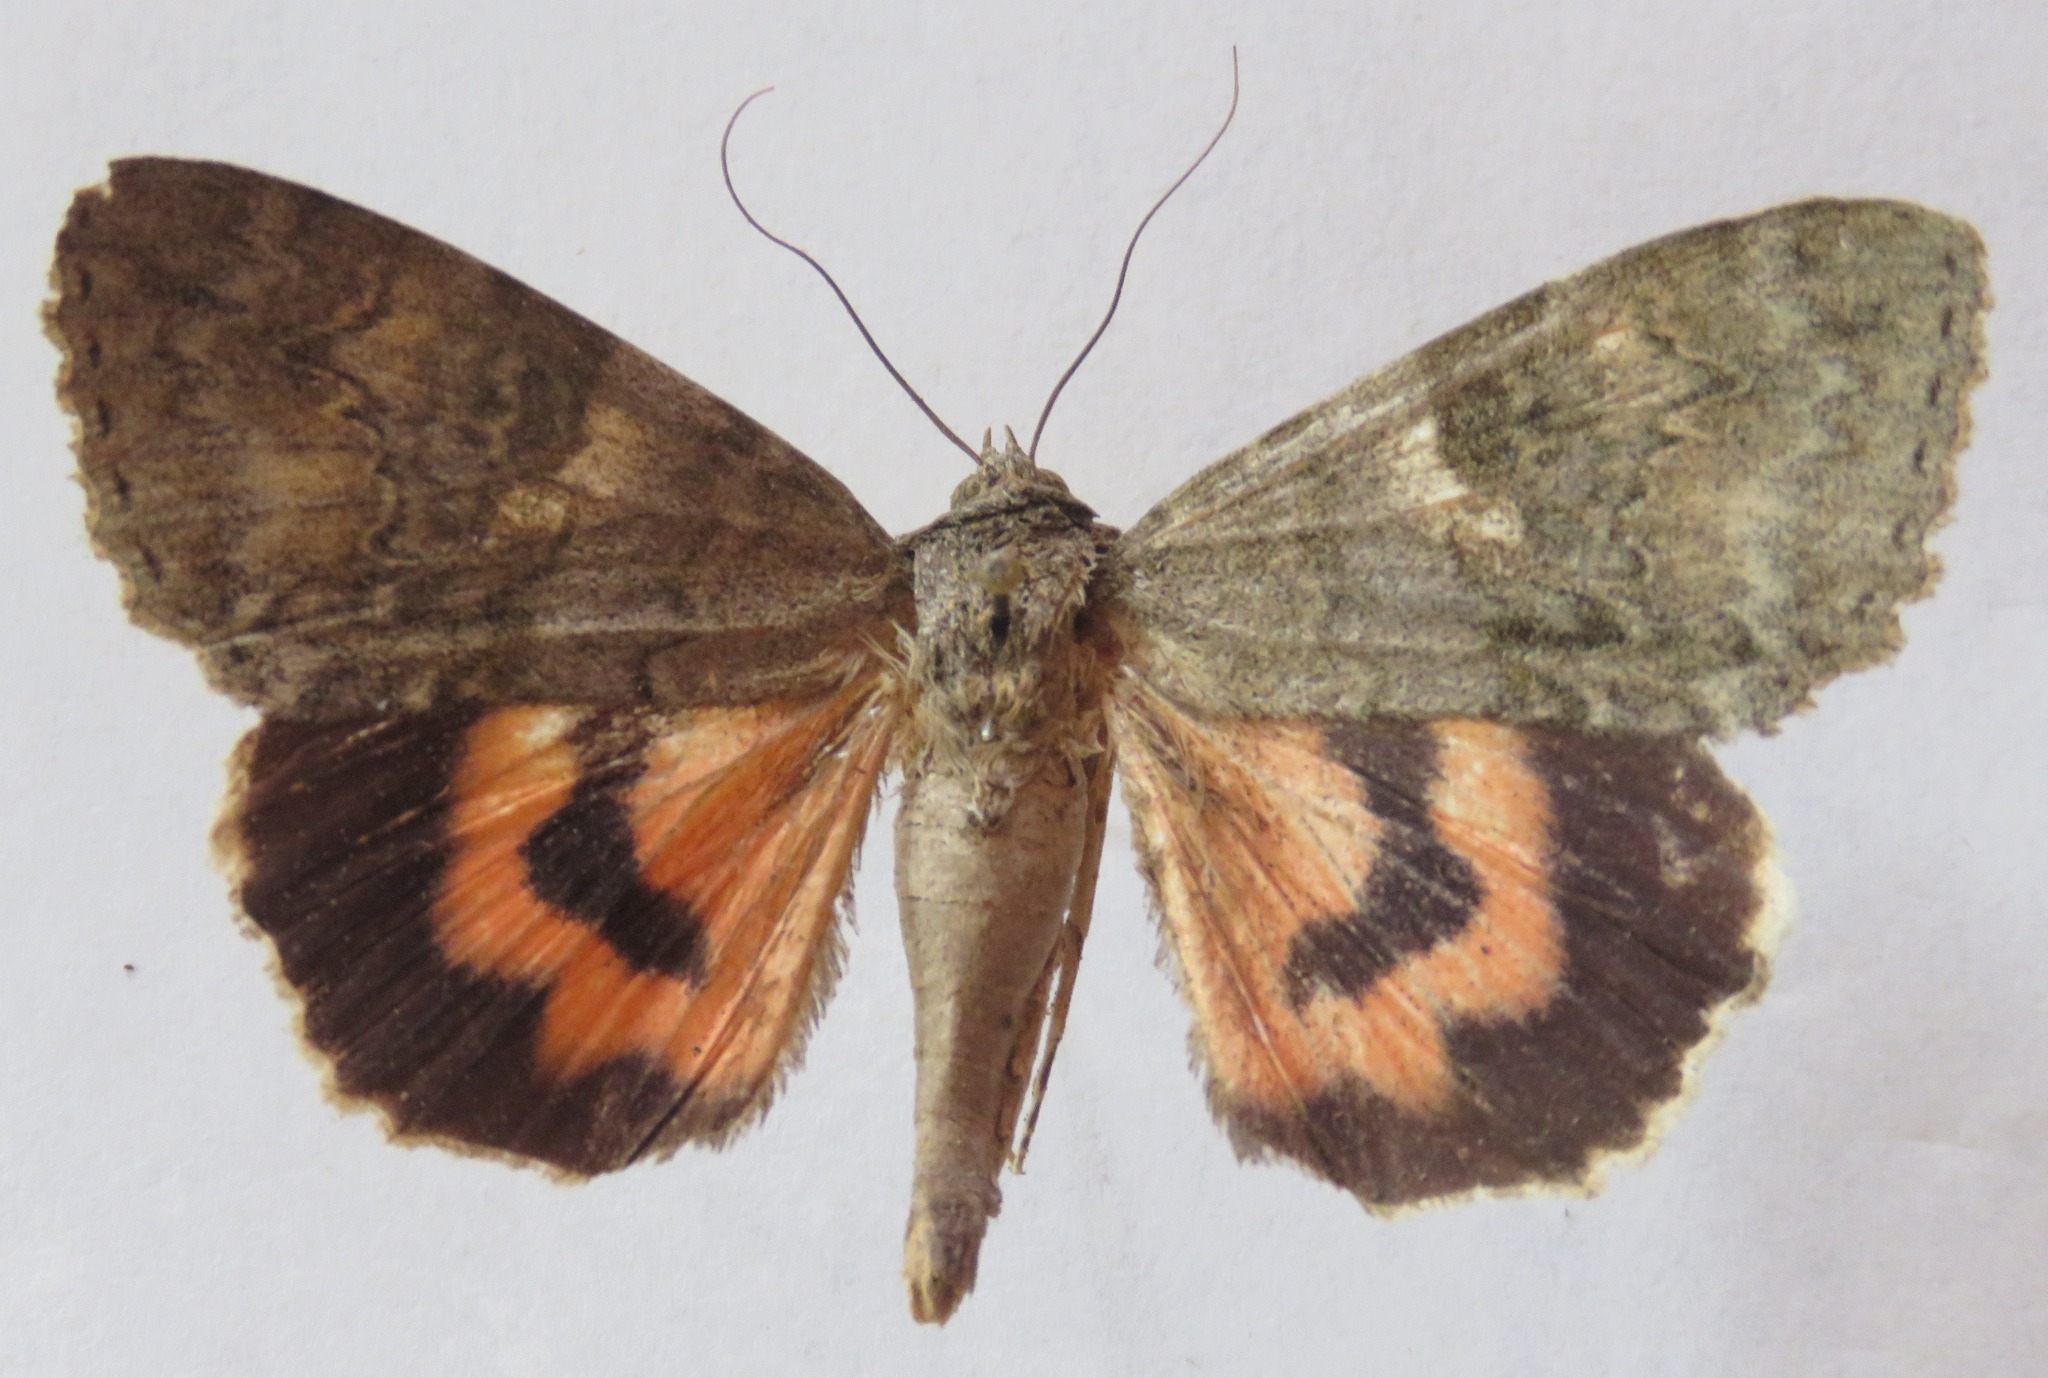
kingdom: Animalia
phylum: Arthropoda
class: Insecta
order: Lepidoptera
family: Erebidae
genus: Catocala
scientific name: Catocala nupta
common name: Red underwing
